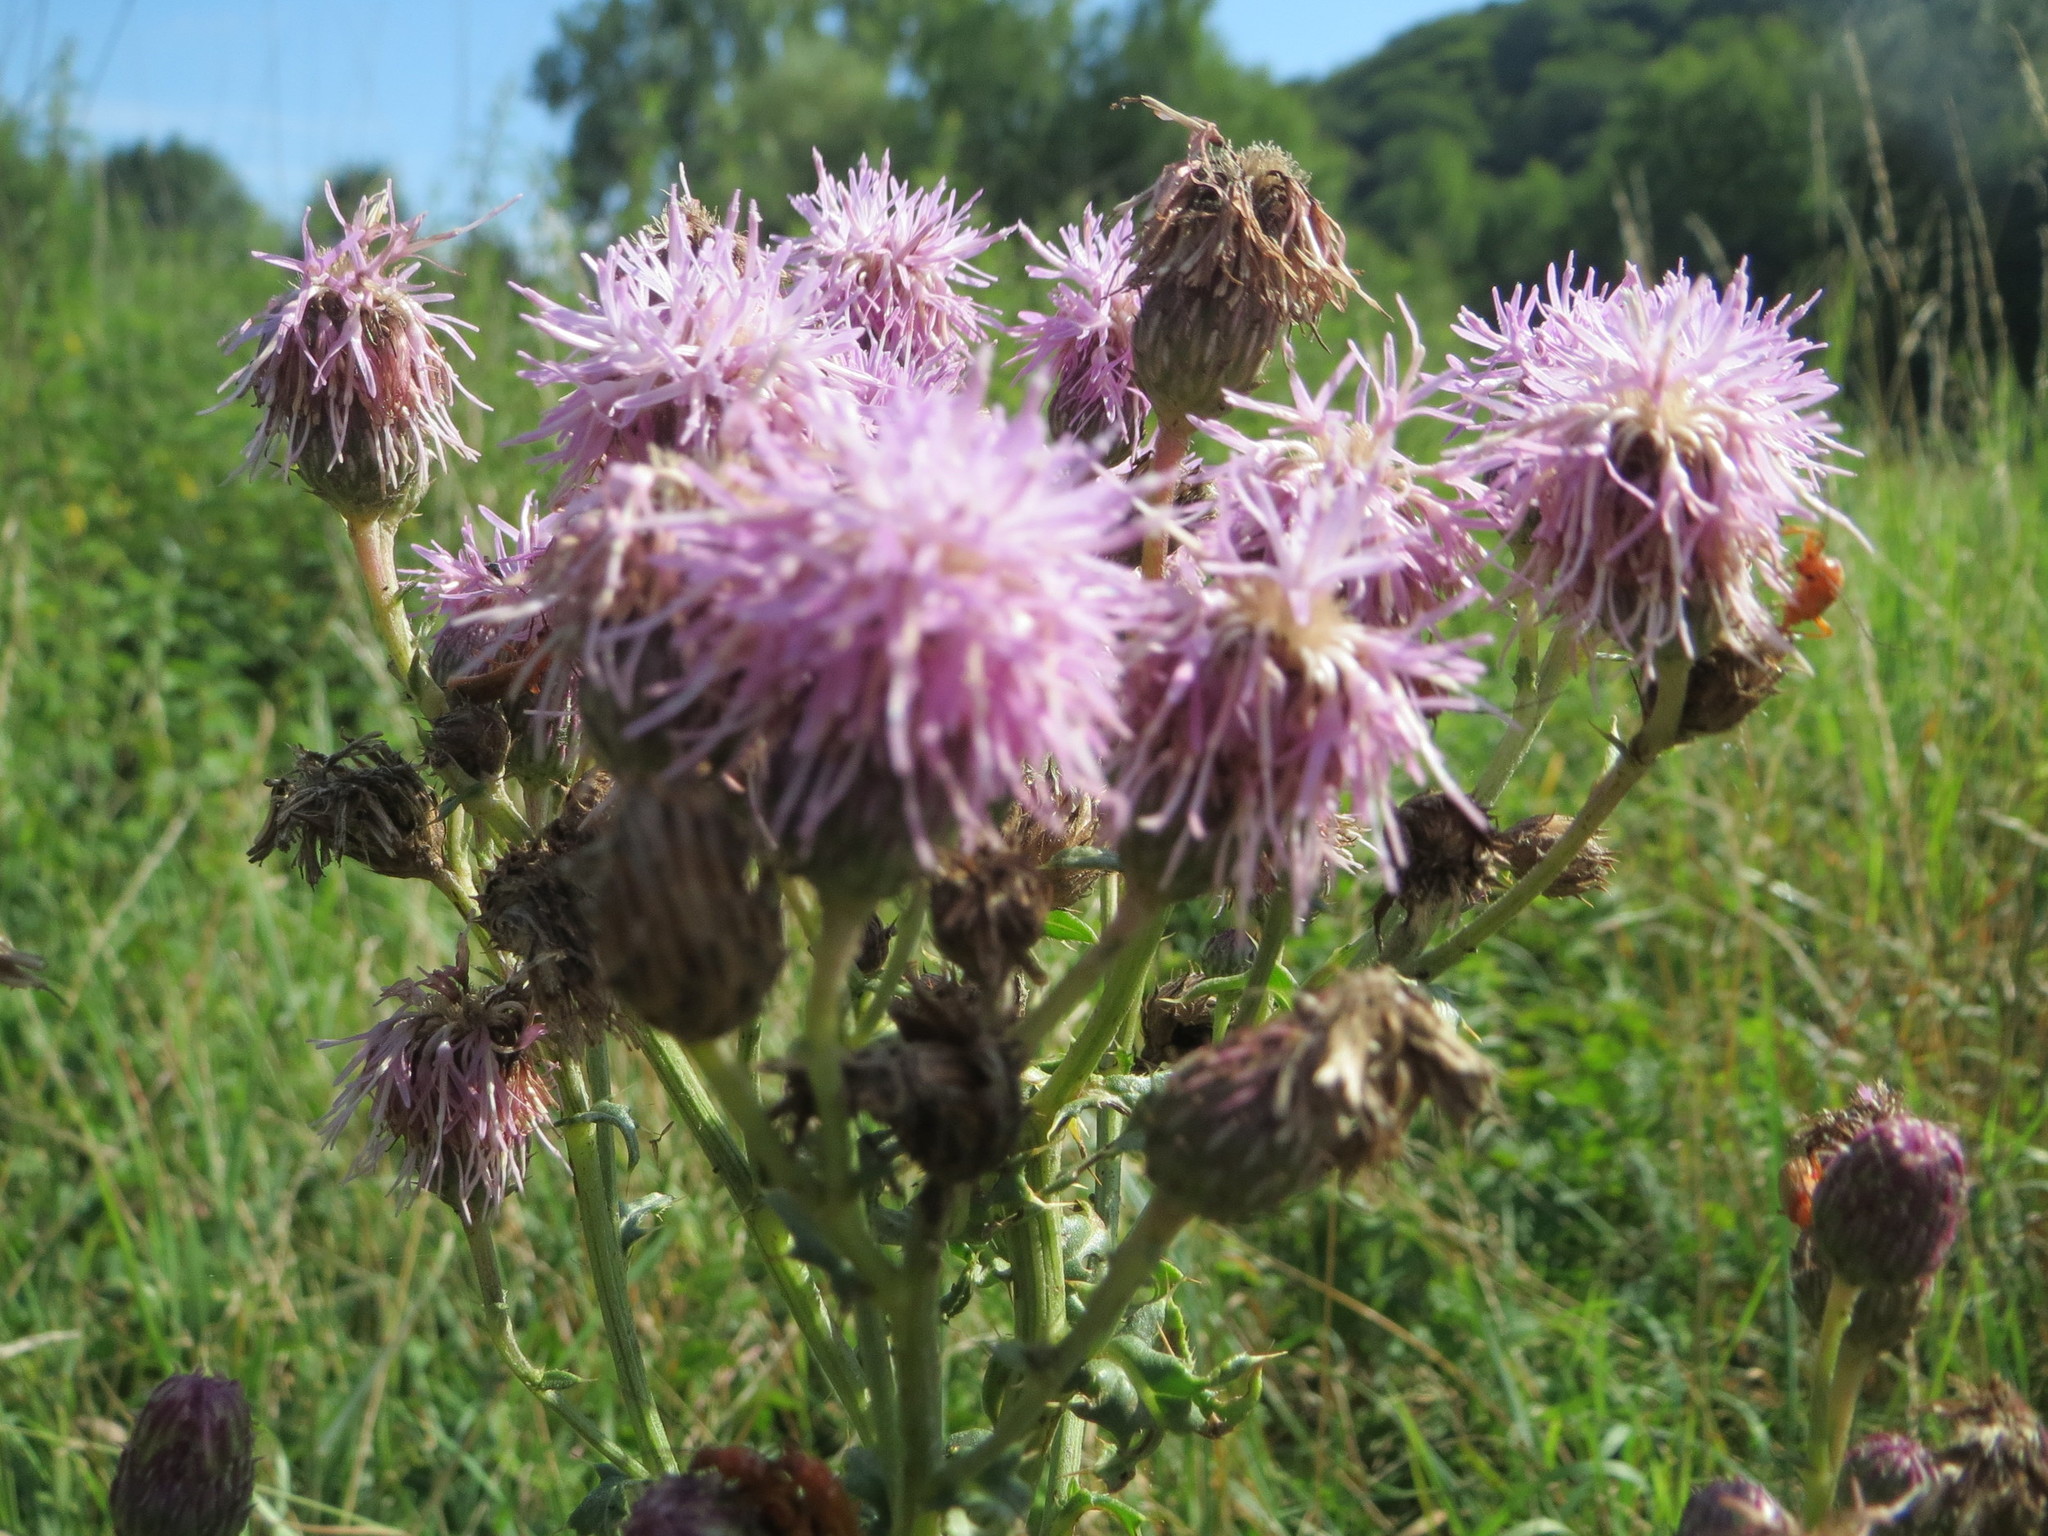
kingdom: Plantae
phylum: Tracheophyta
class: Magnoliopsida
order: Asterales
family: Asteraceae
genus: Cirsium
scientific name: Cirsium arvense
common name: Creeping thistle
